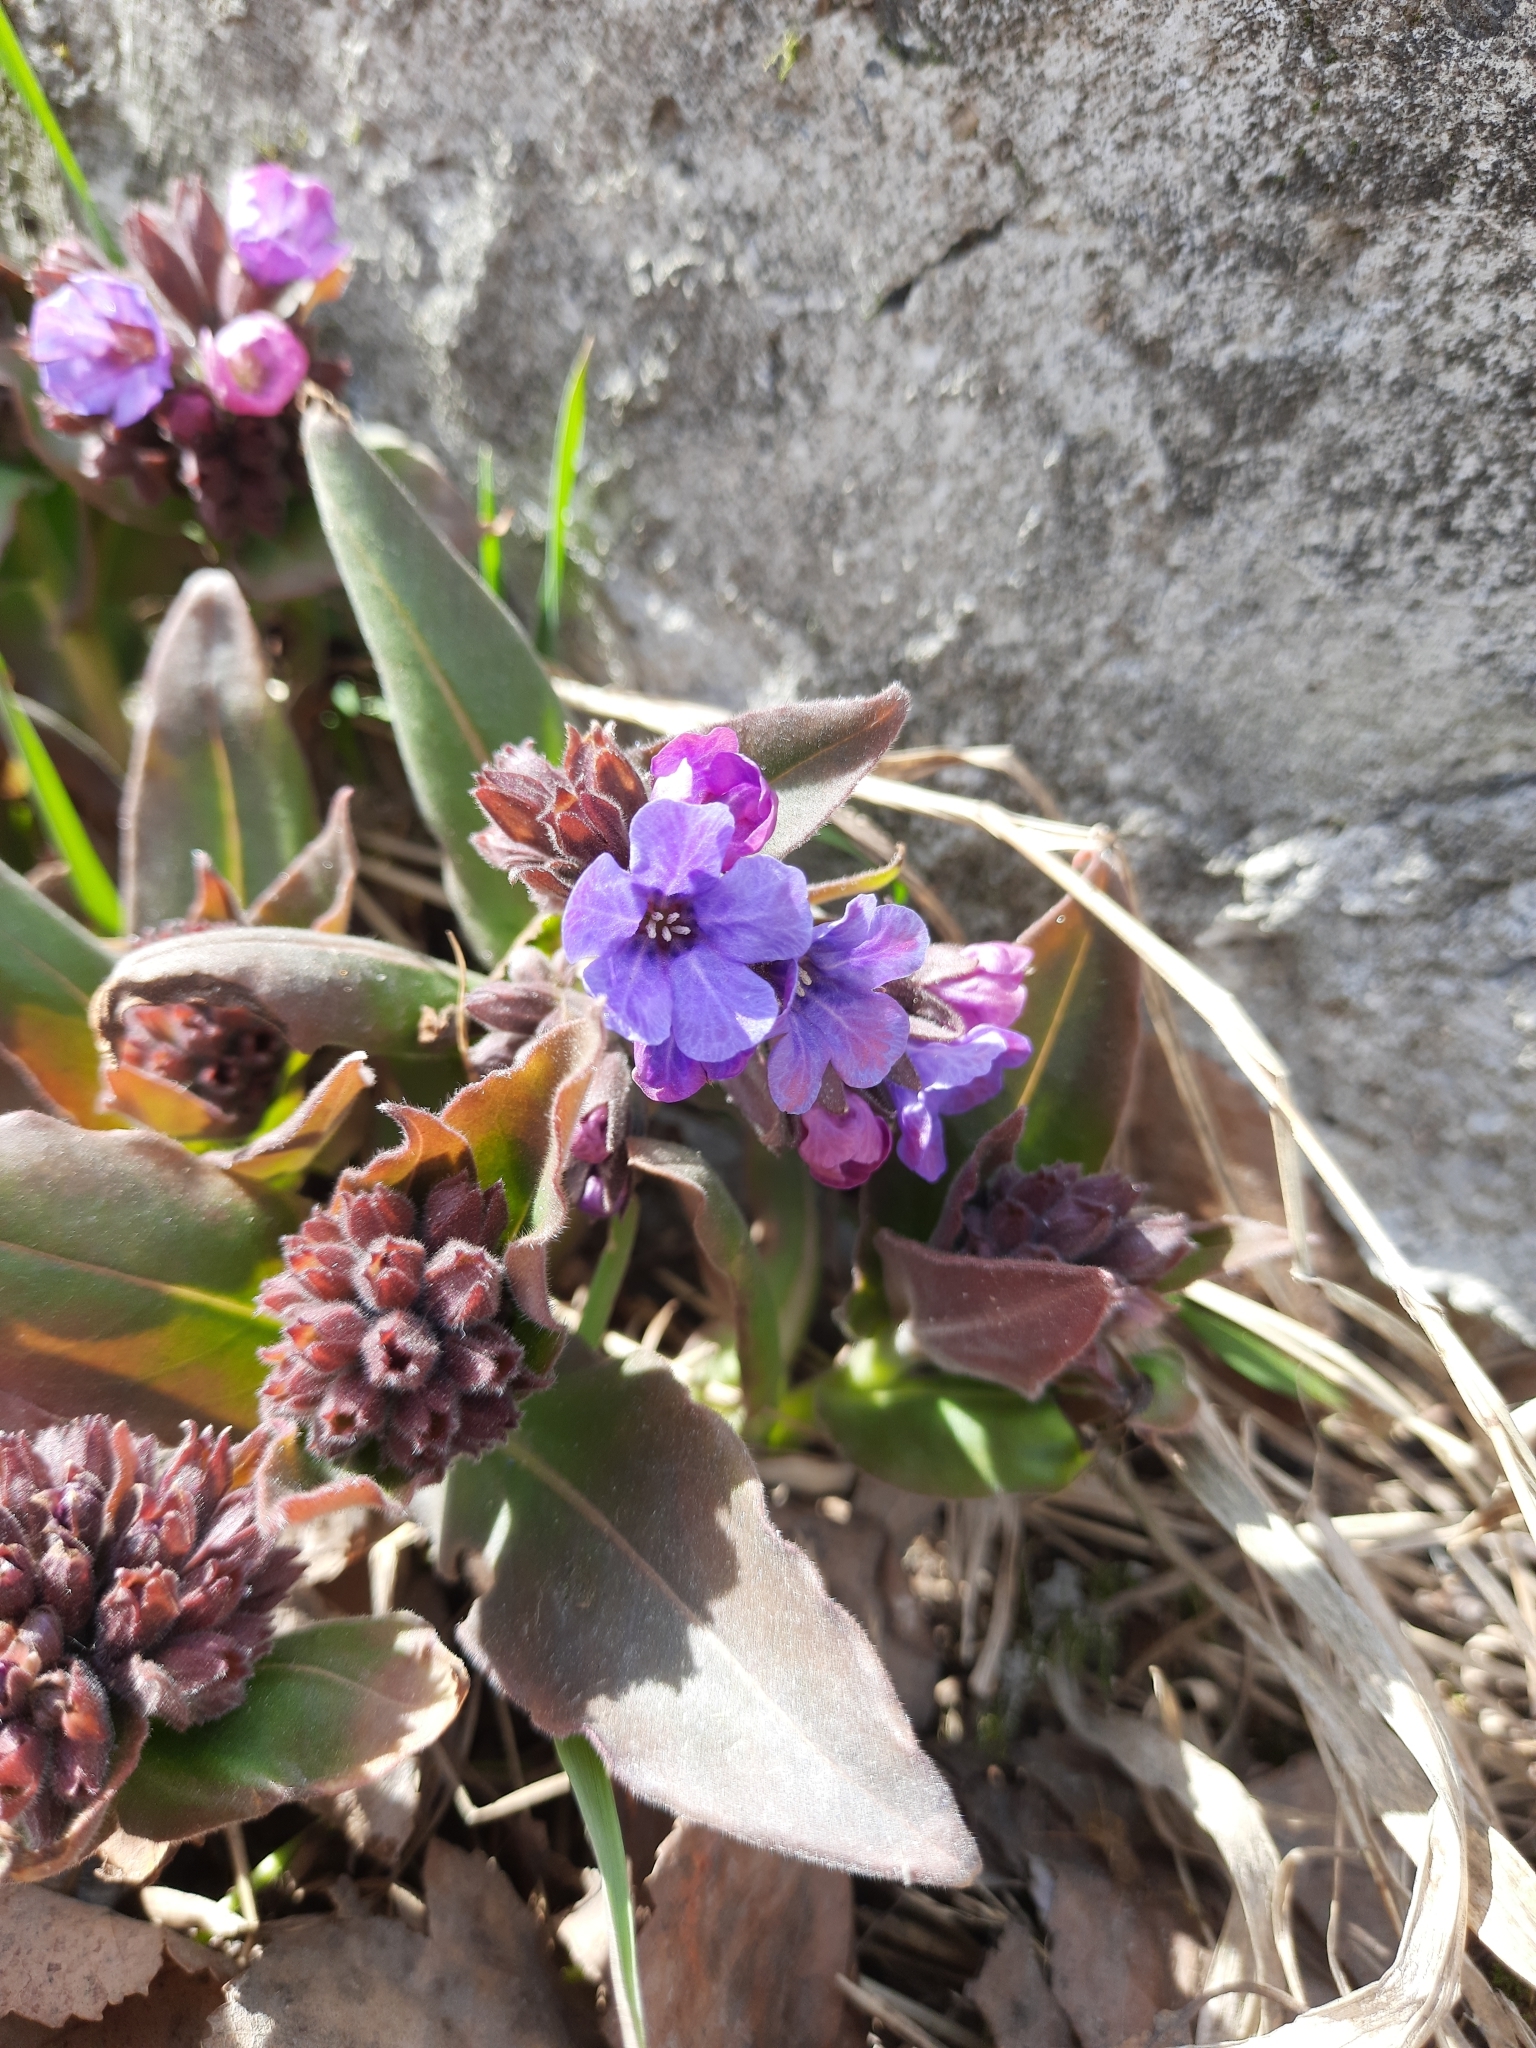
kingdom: Plantae
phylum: Tracheophyta
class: Magnoliopsida
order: Boraginales
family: Boraginaceae
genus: Pulmonaria
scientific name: Pulmonaria mollis
